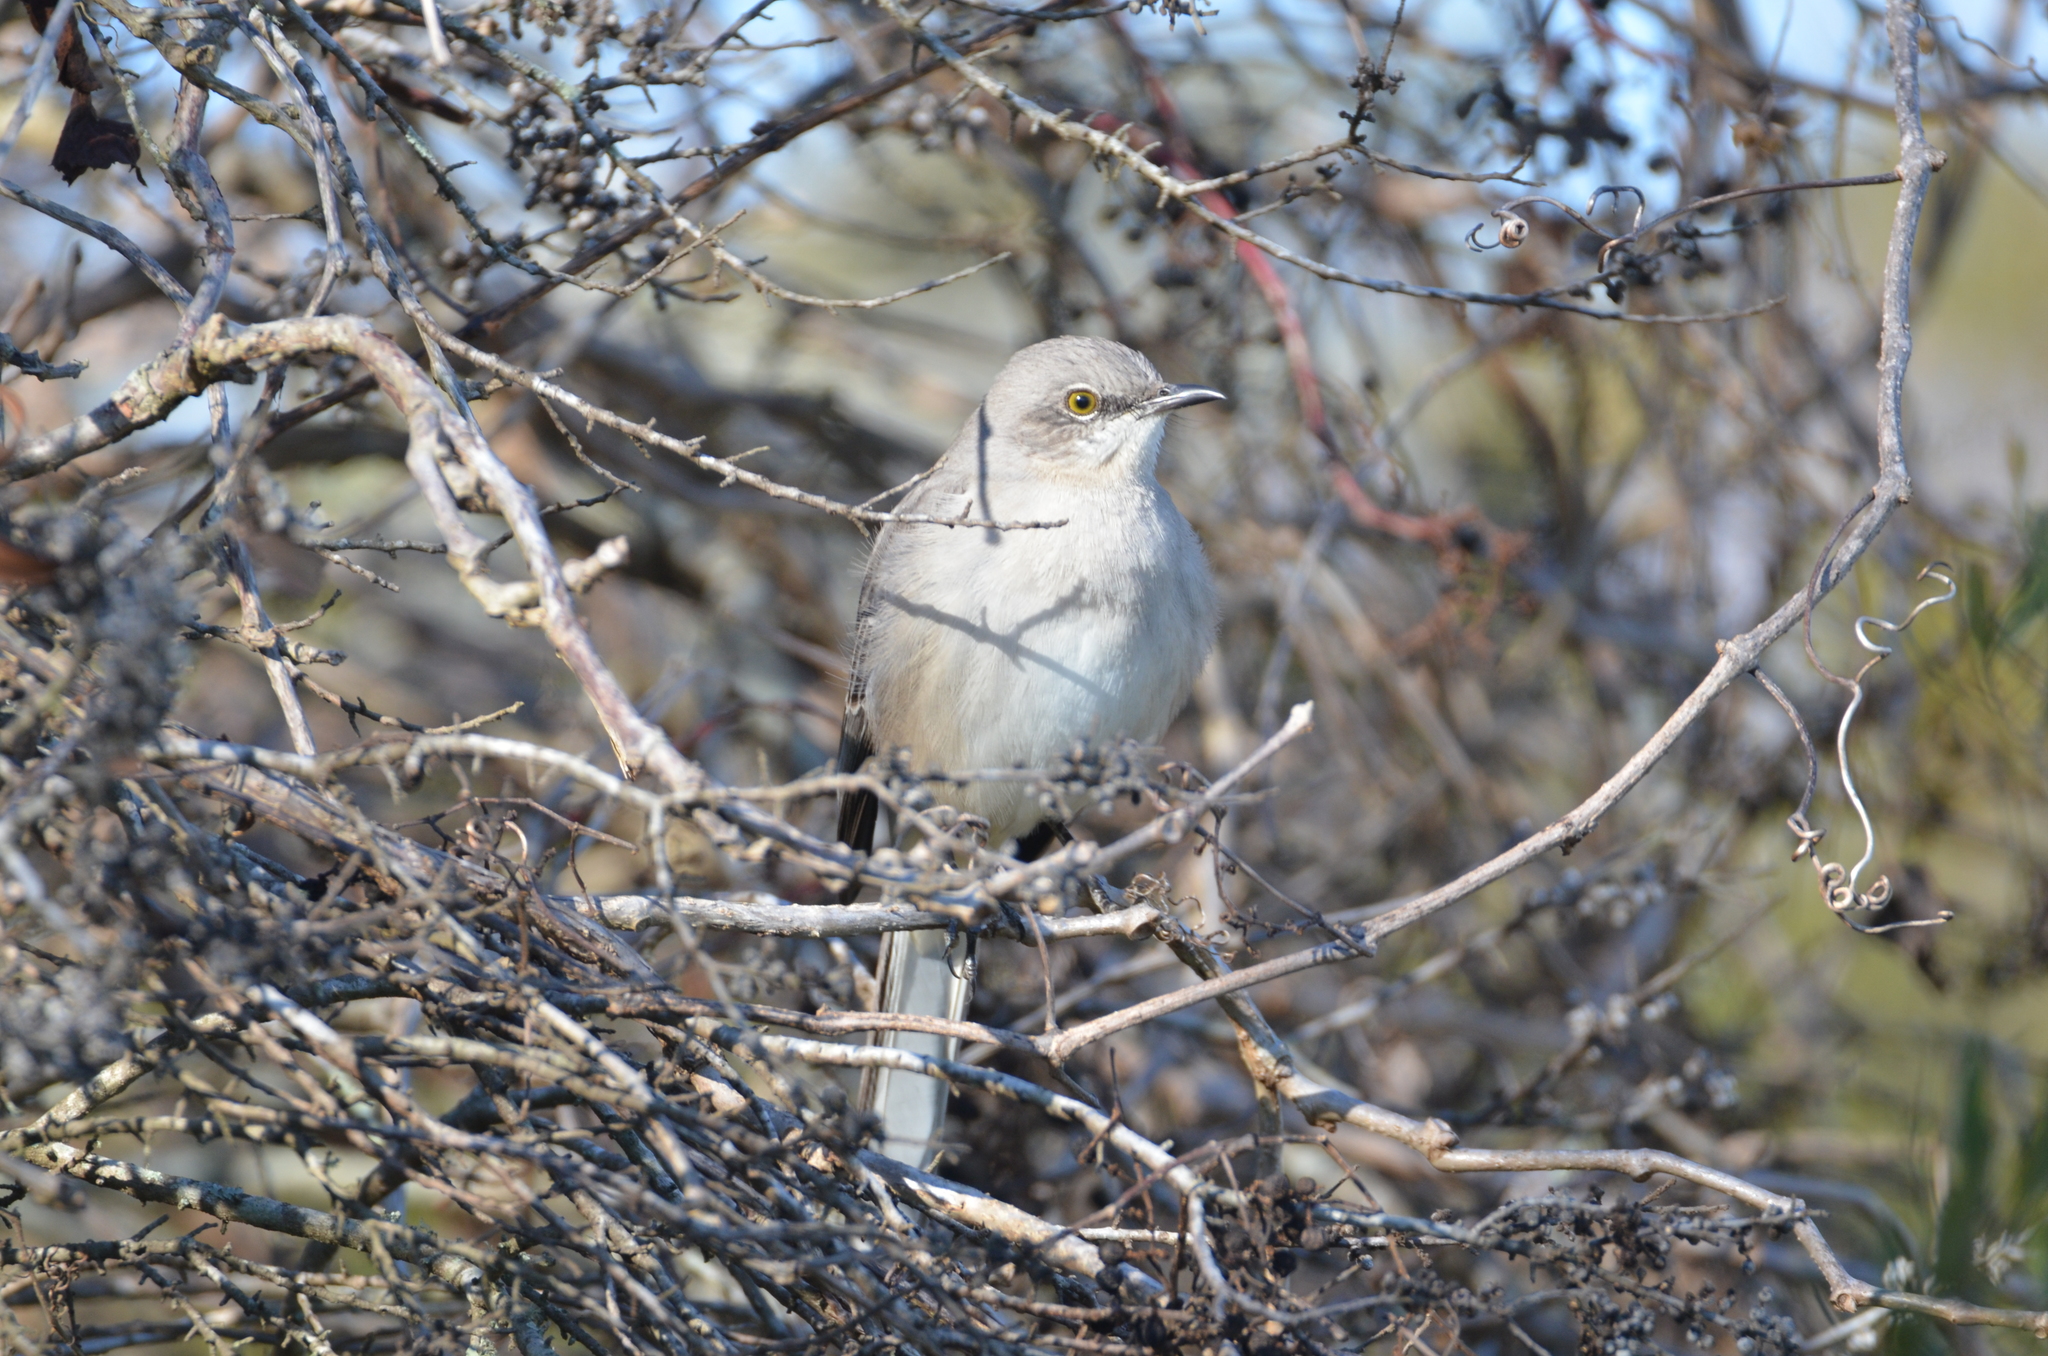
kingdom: Animalia
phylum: Chordata
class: Aves
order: Passeriformes
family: Mimidae
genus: Mimus
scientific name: Mimus polyglottos
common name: Northern mockingbird
